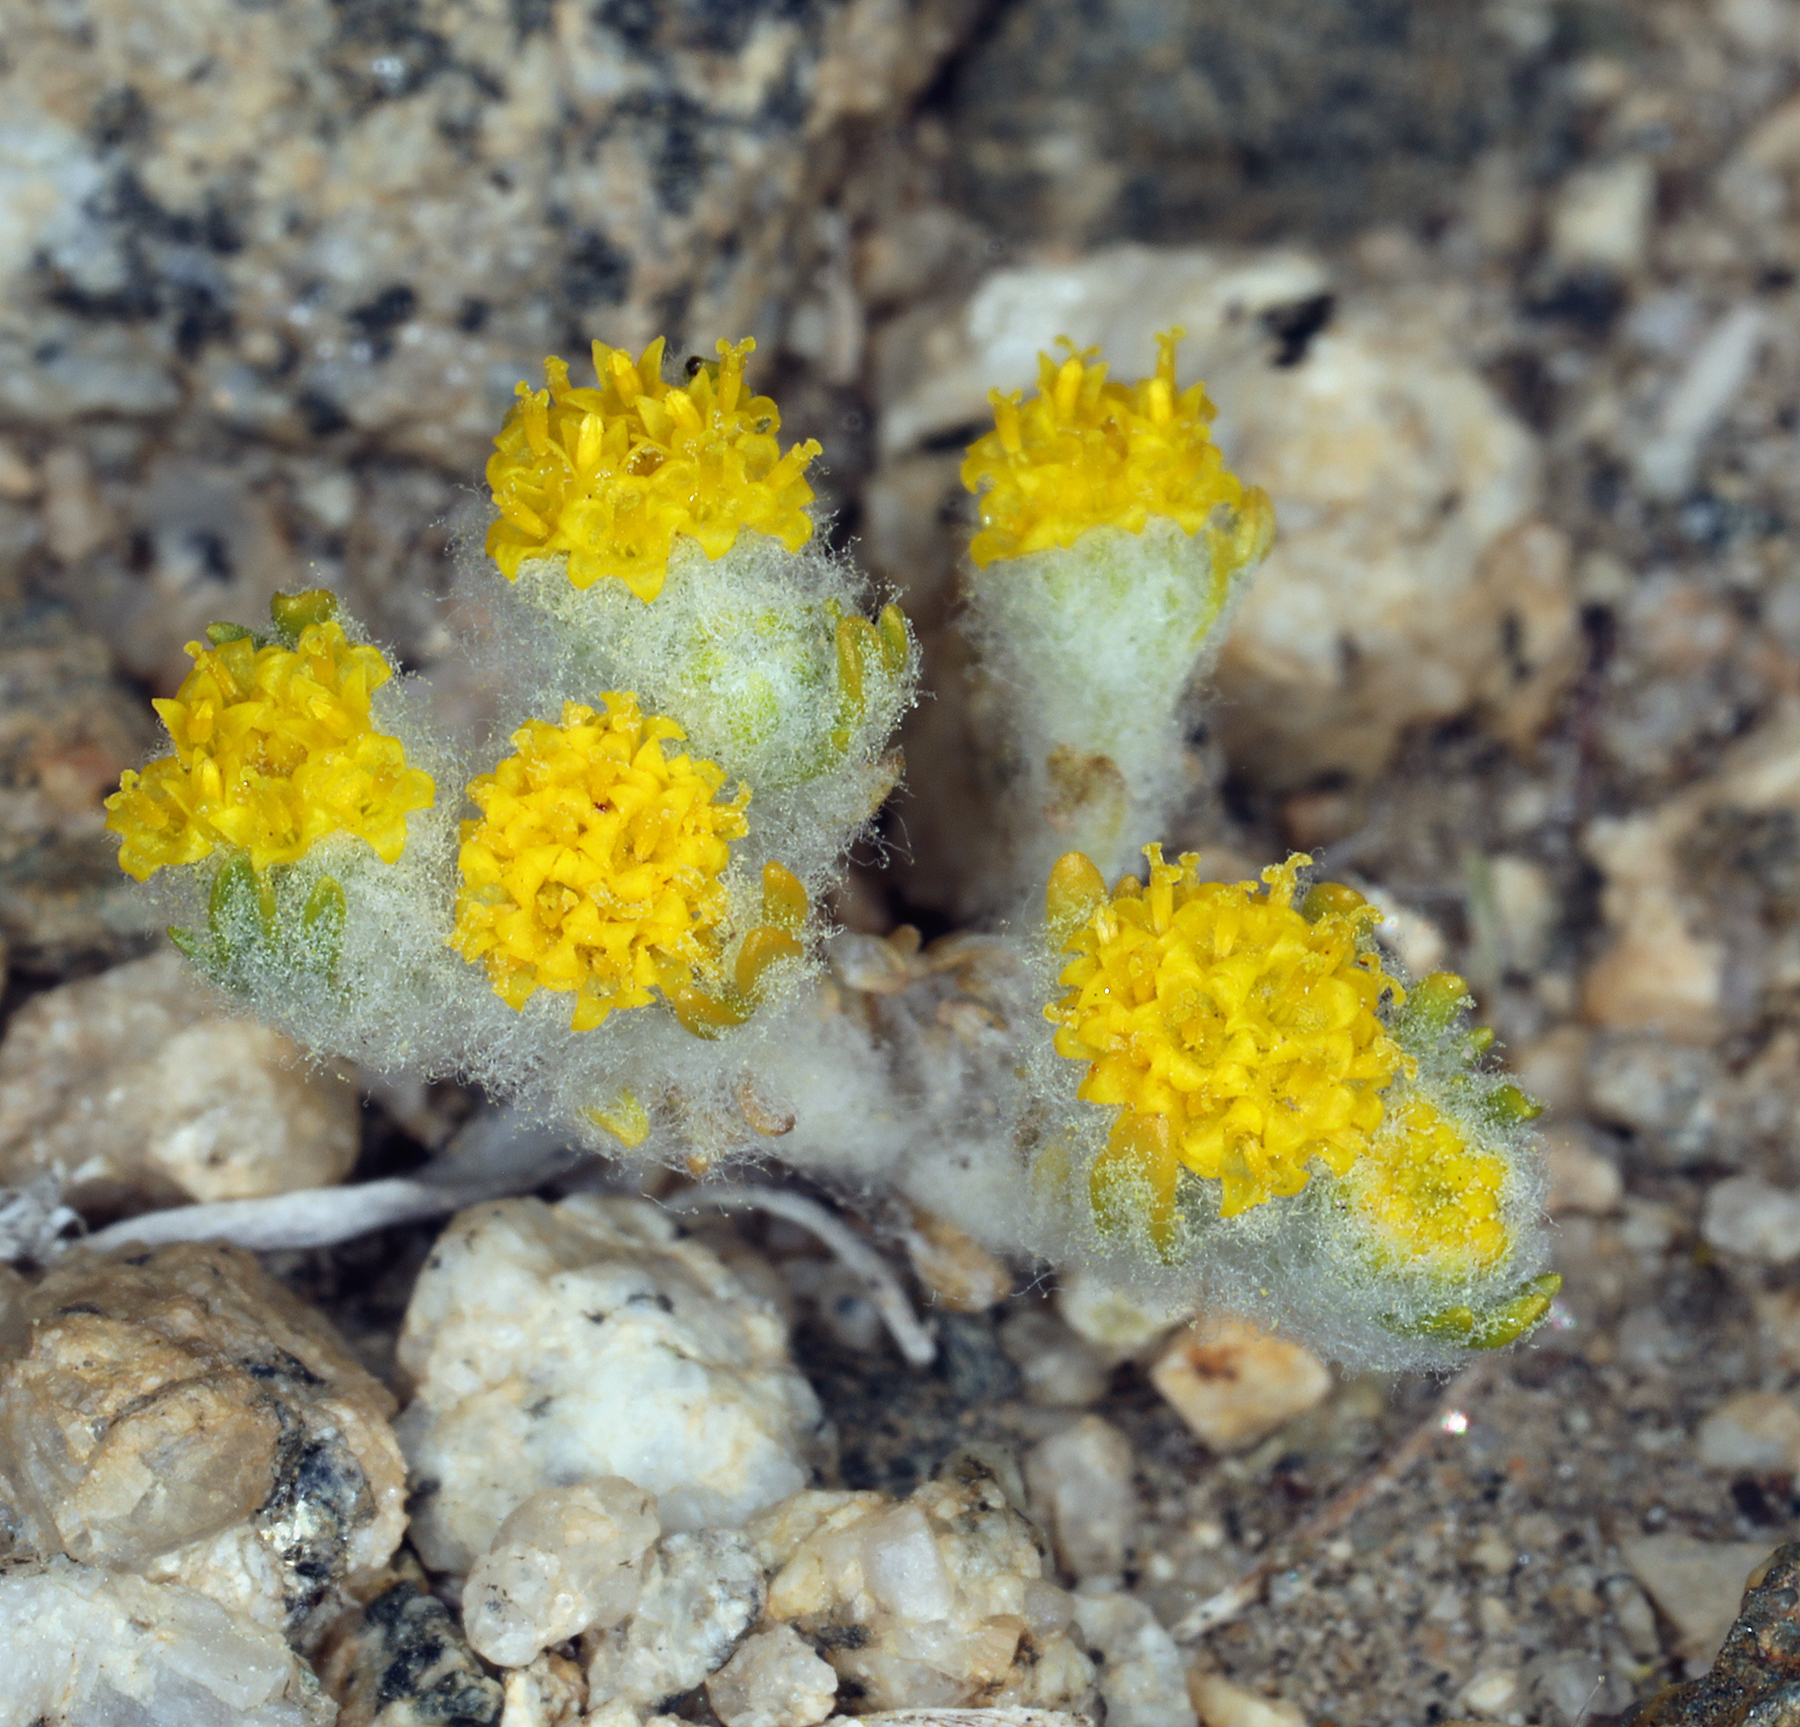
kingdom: Plantae
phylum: Tracheophyta
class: Magnoliopsida
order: Asterales
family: Asteraceae
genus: Eriophyllum
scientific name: Eriophyllum pringlei
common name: Pringle's woolly-sunflower
